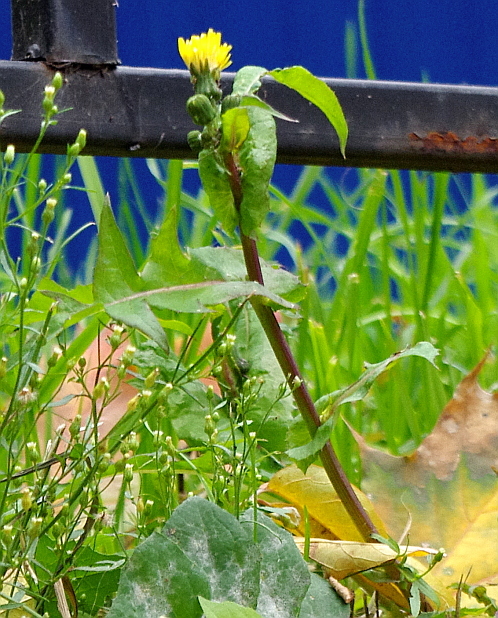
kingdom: Plantae
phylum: Tracheophyta
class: Magnoliopsida
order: Asterales
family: Asteraceae
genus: Sonchus
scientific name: Sonchus oleraceus
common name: Common sowthistle
